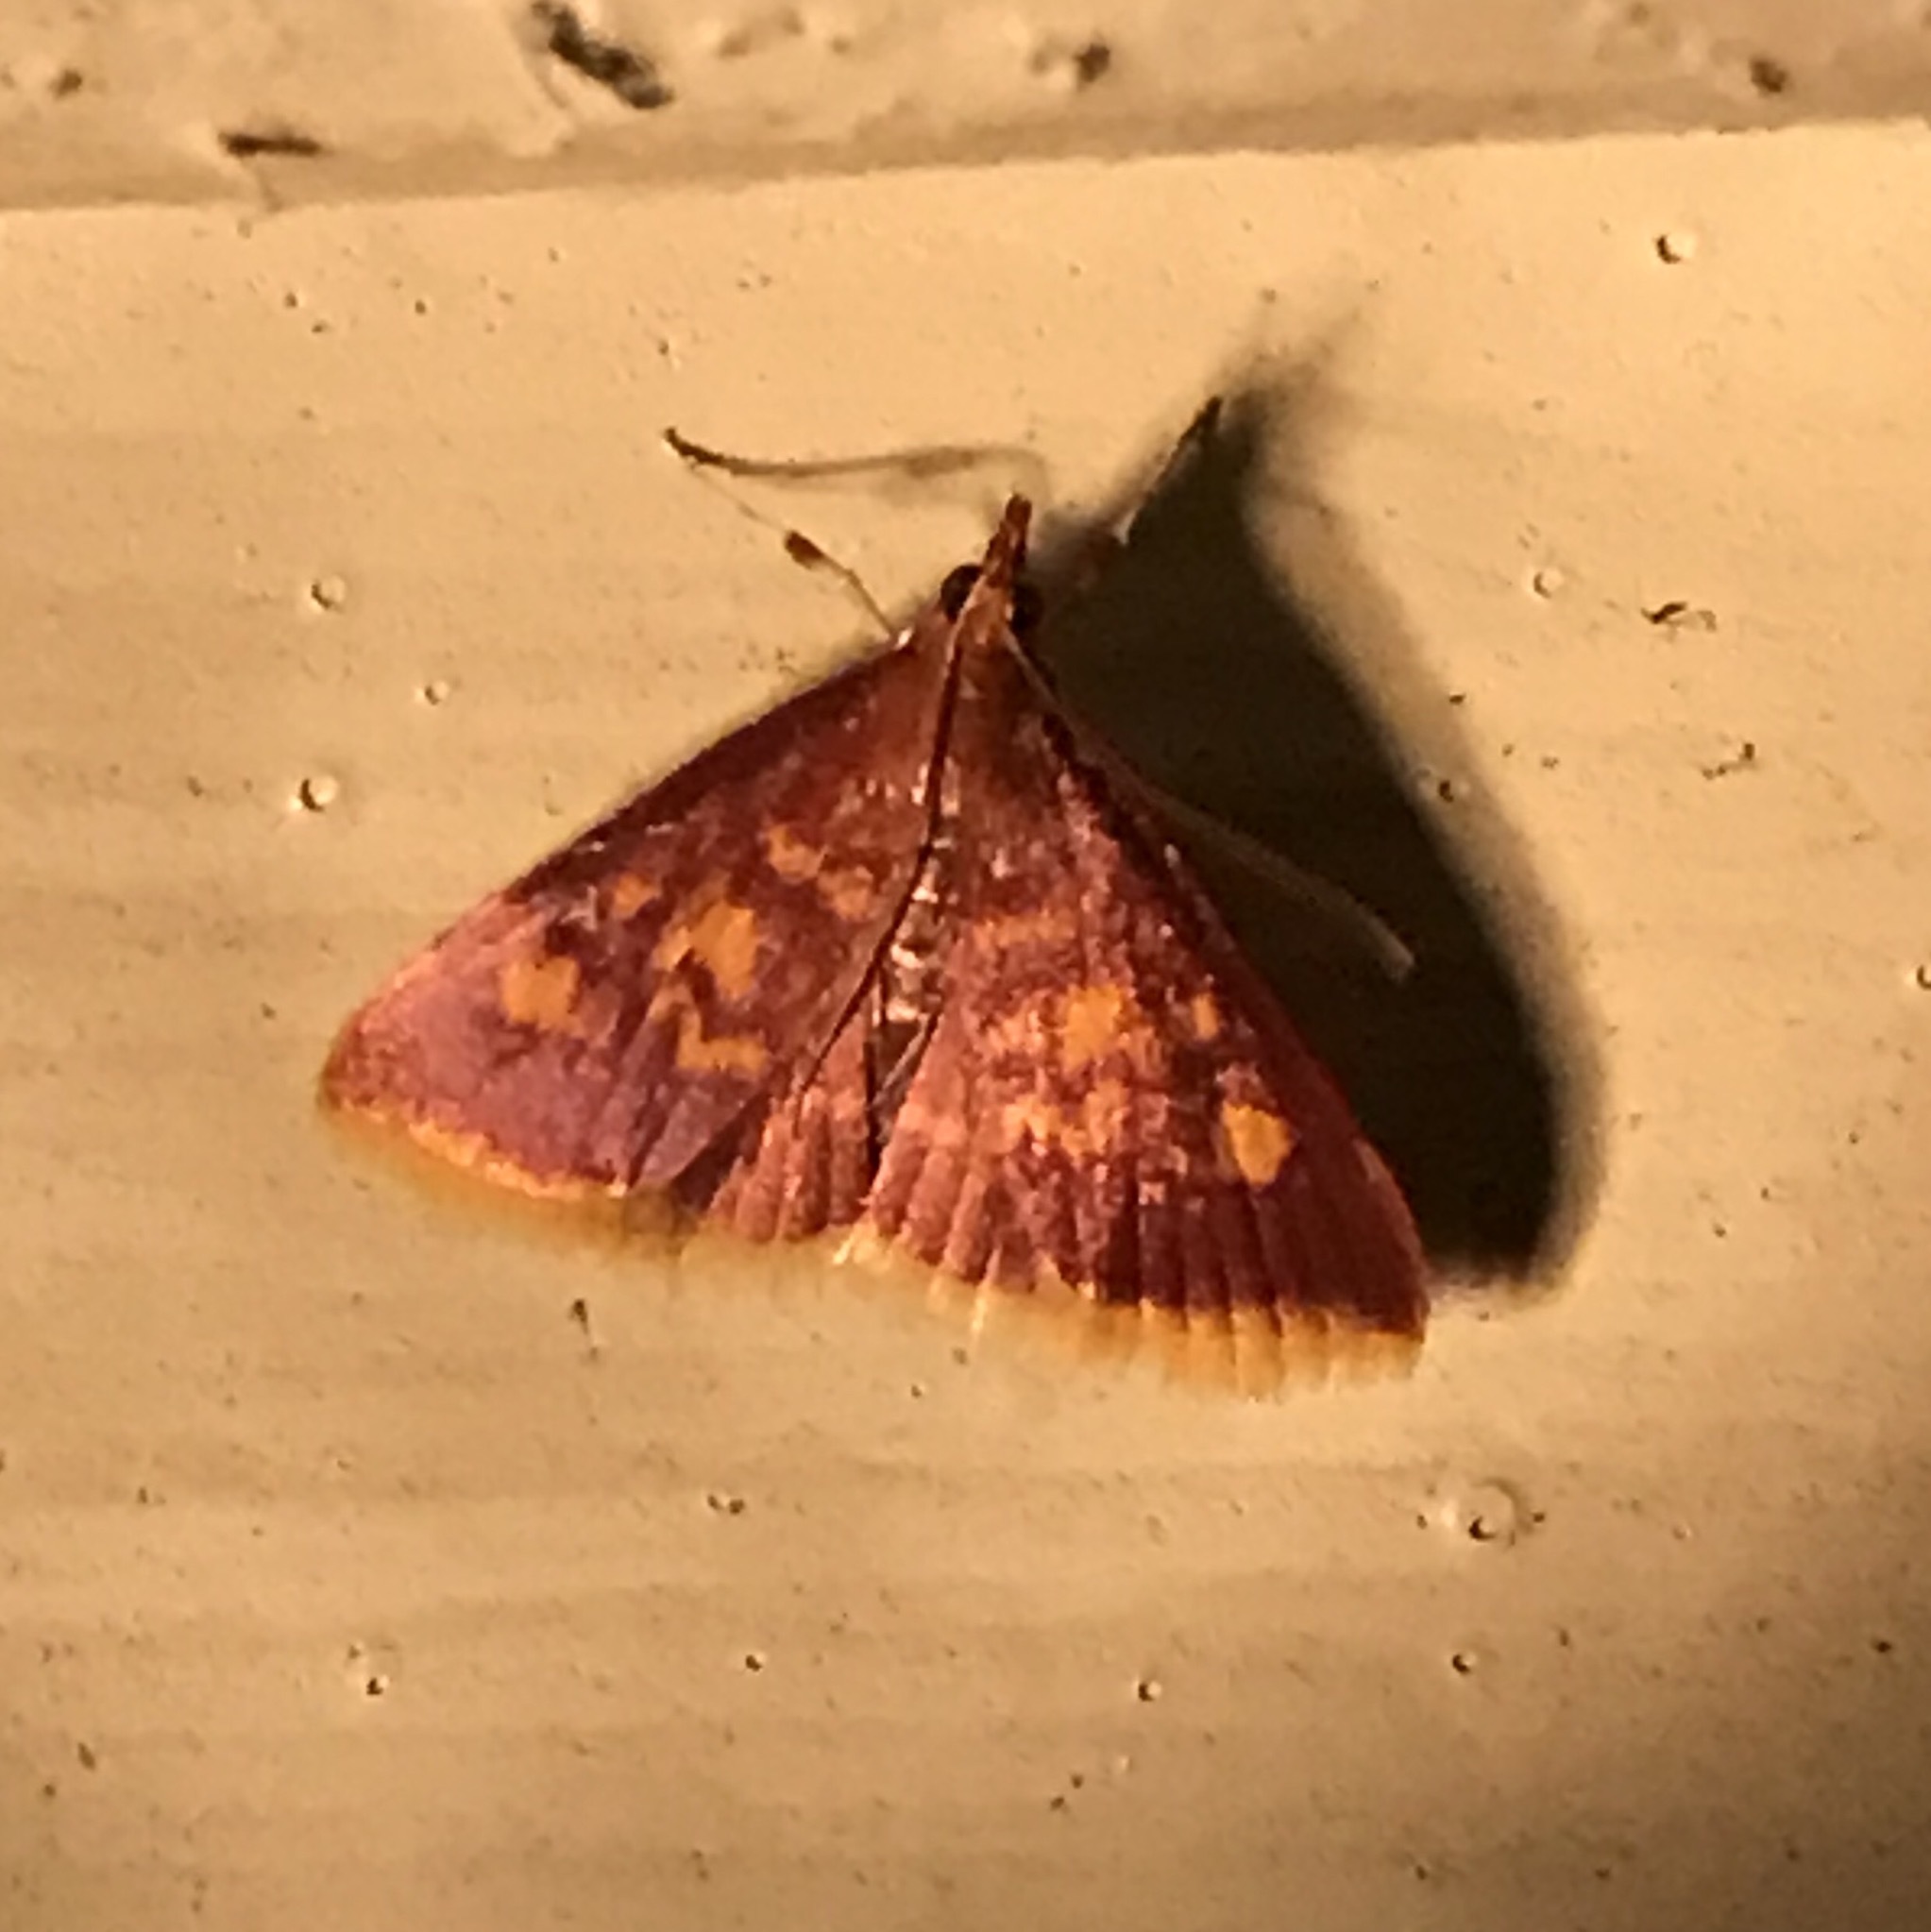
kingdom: Animalia
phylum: Arthropoda
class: Insecta
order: Lepidoptera
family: Crambidae
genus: Pyrausta
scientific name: Pyrausta acrionalis
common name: Mint-loving pyrausta moth
